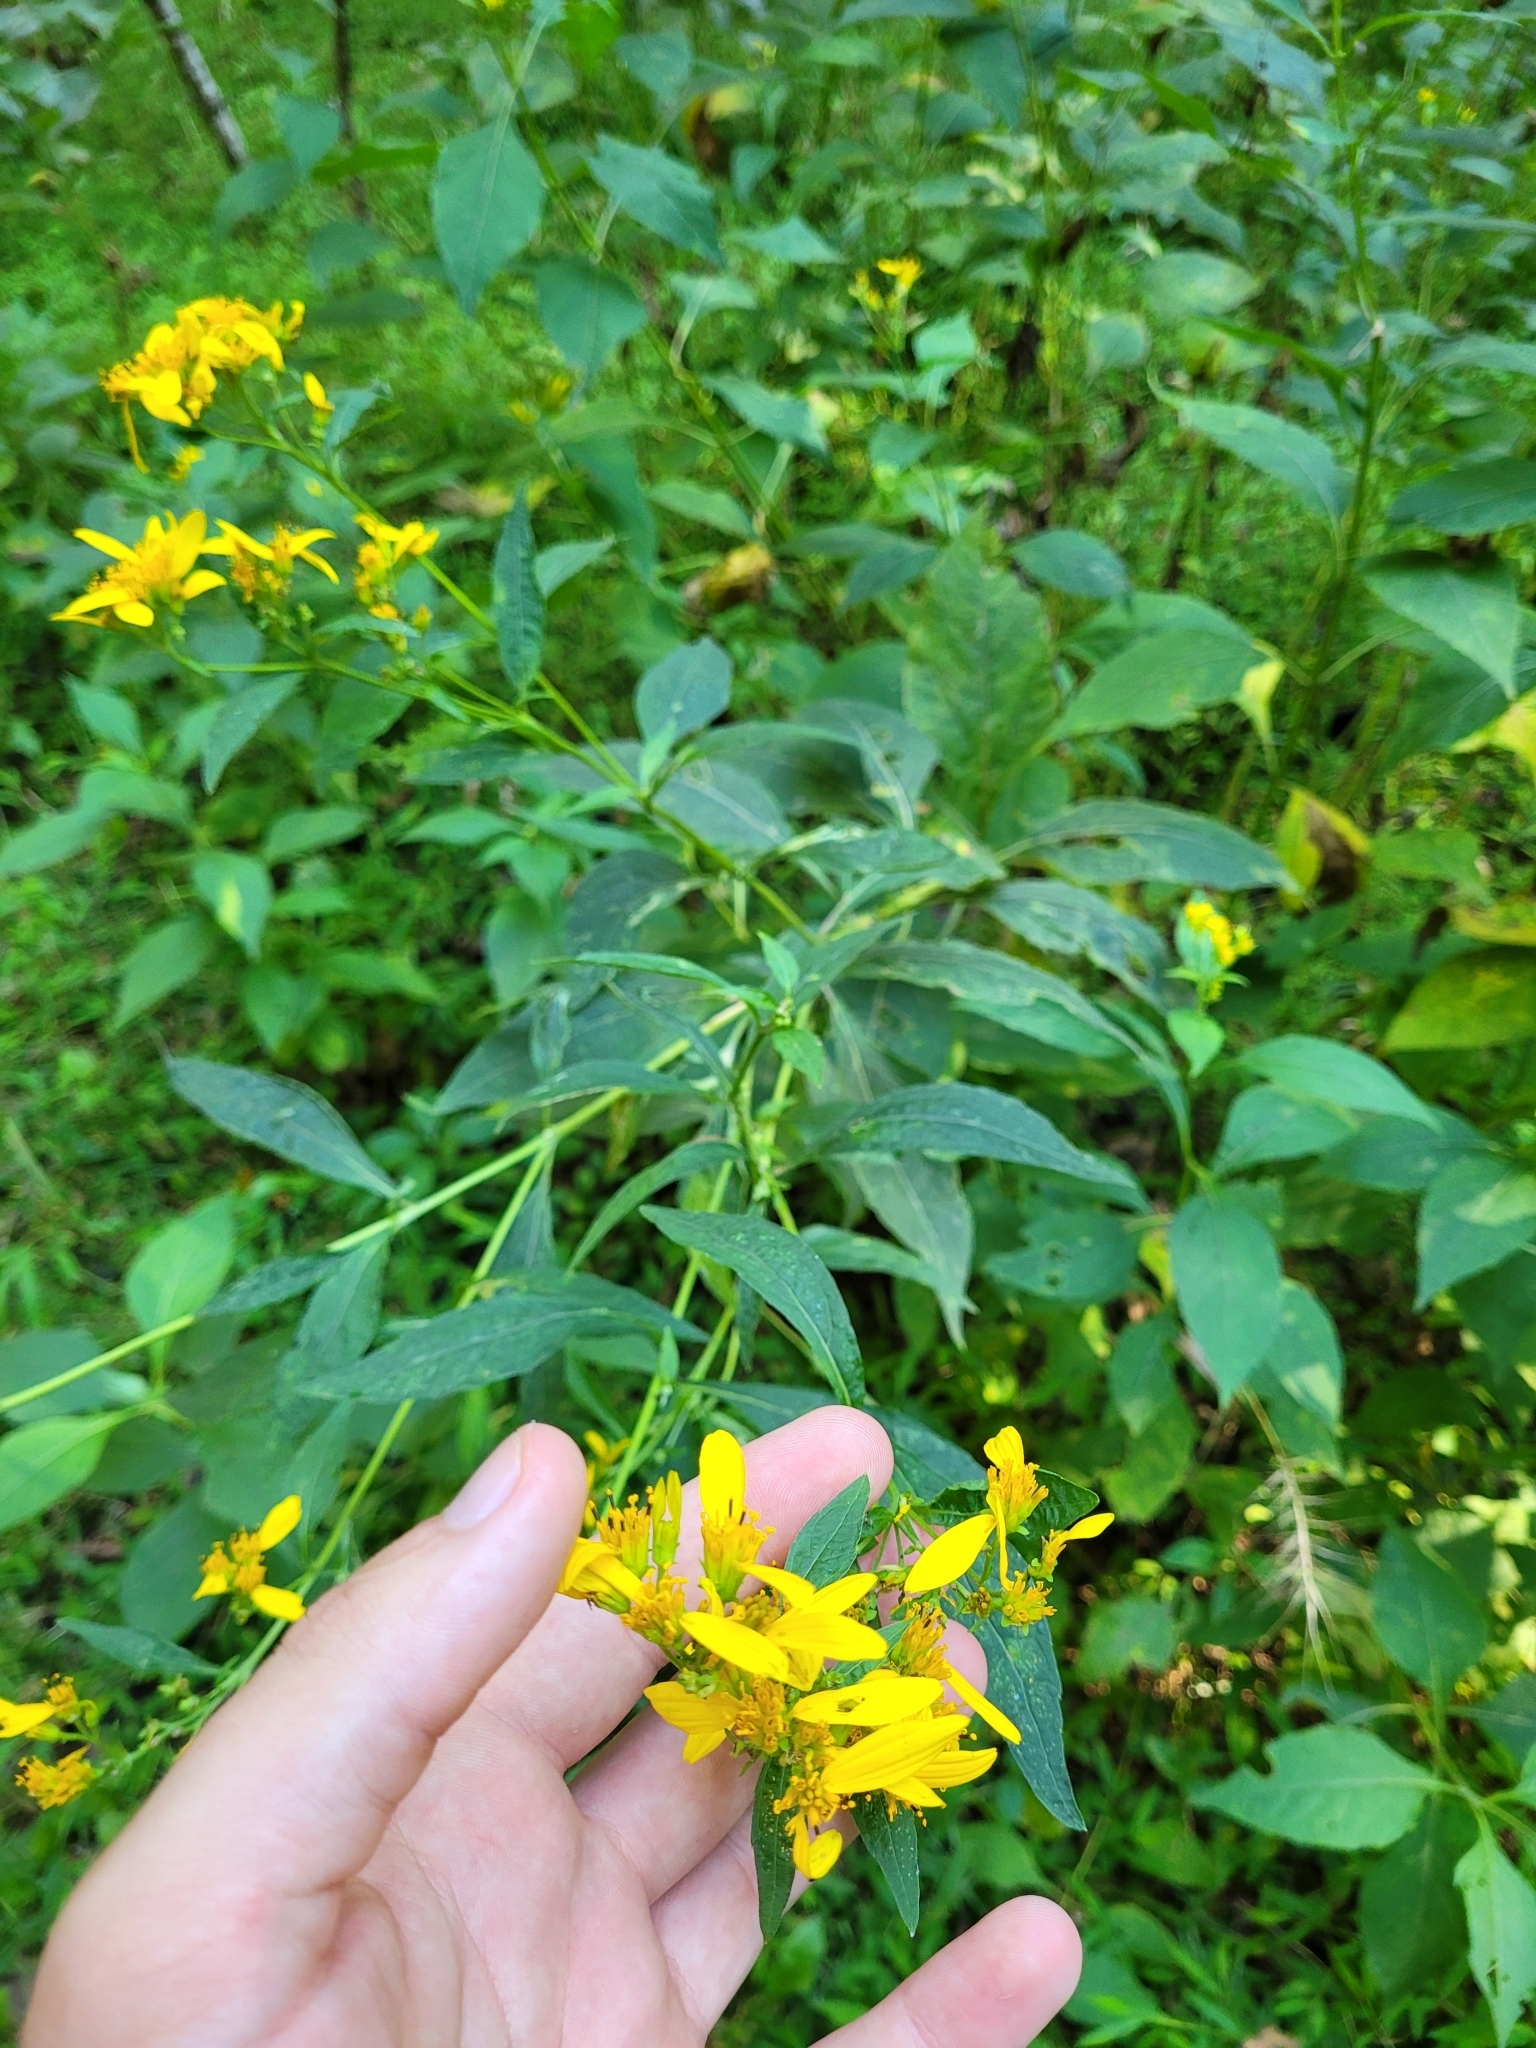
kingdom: Plantae
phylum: Tracheophyta
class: Magnoliopsida
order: Asterales
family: Asteraceae
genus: Verbesina
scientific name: Verbesina occidentalis
